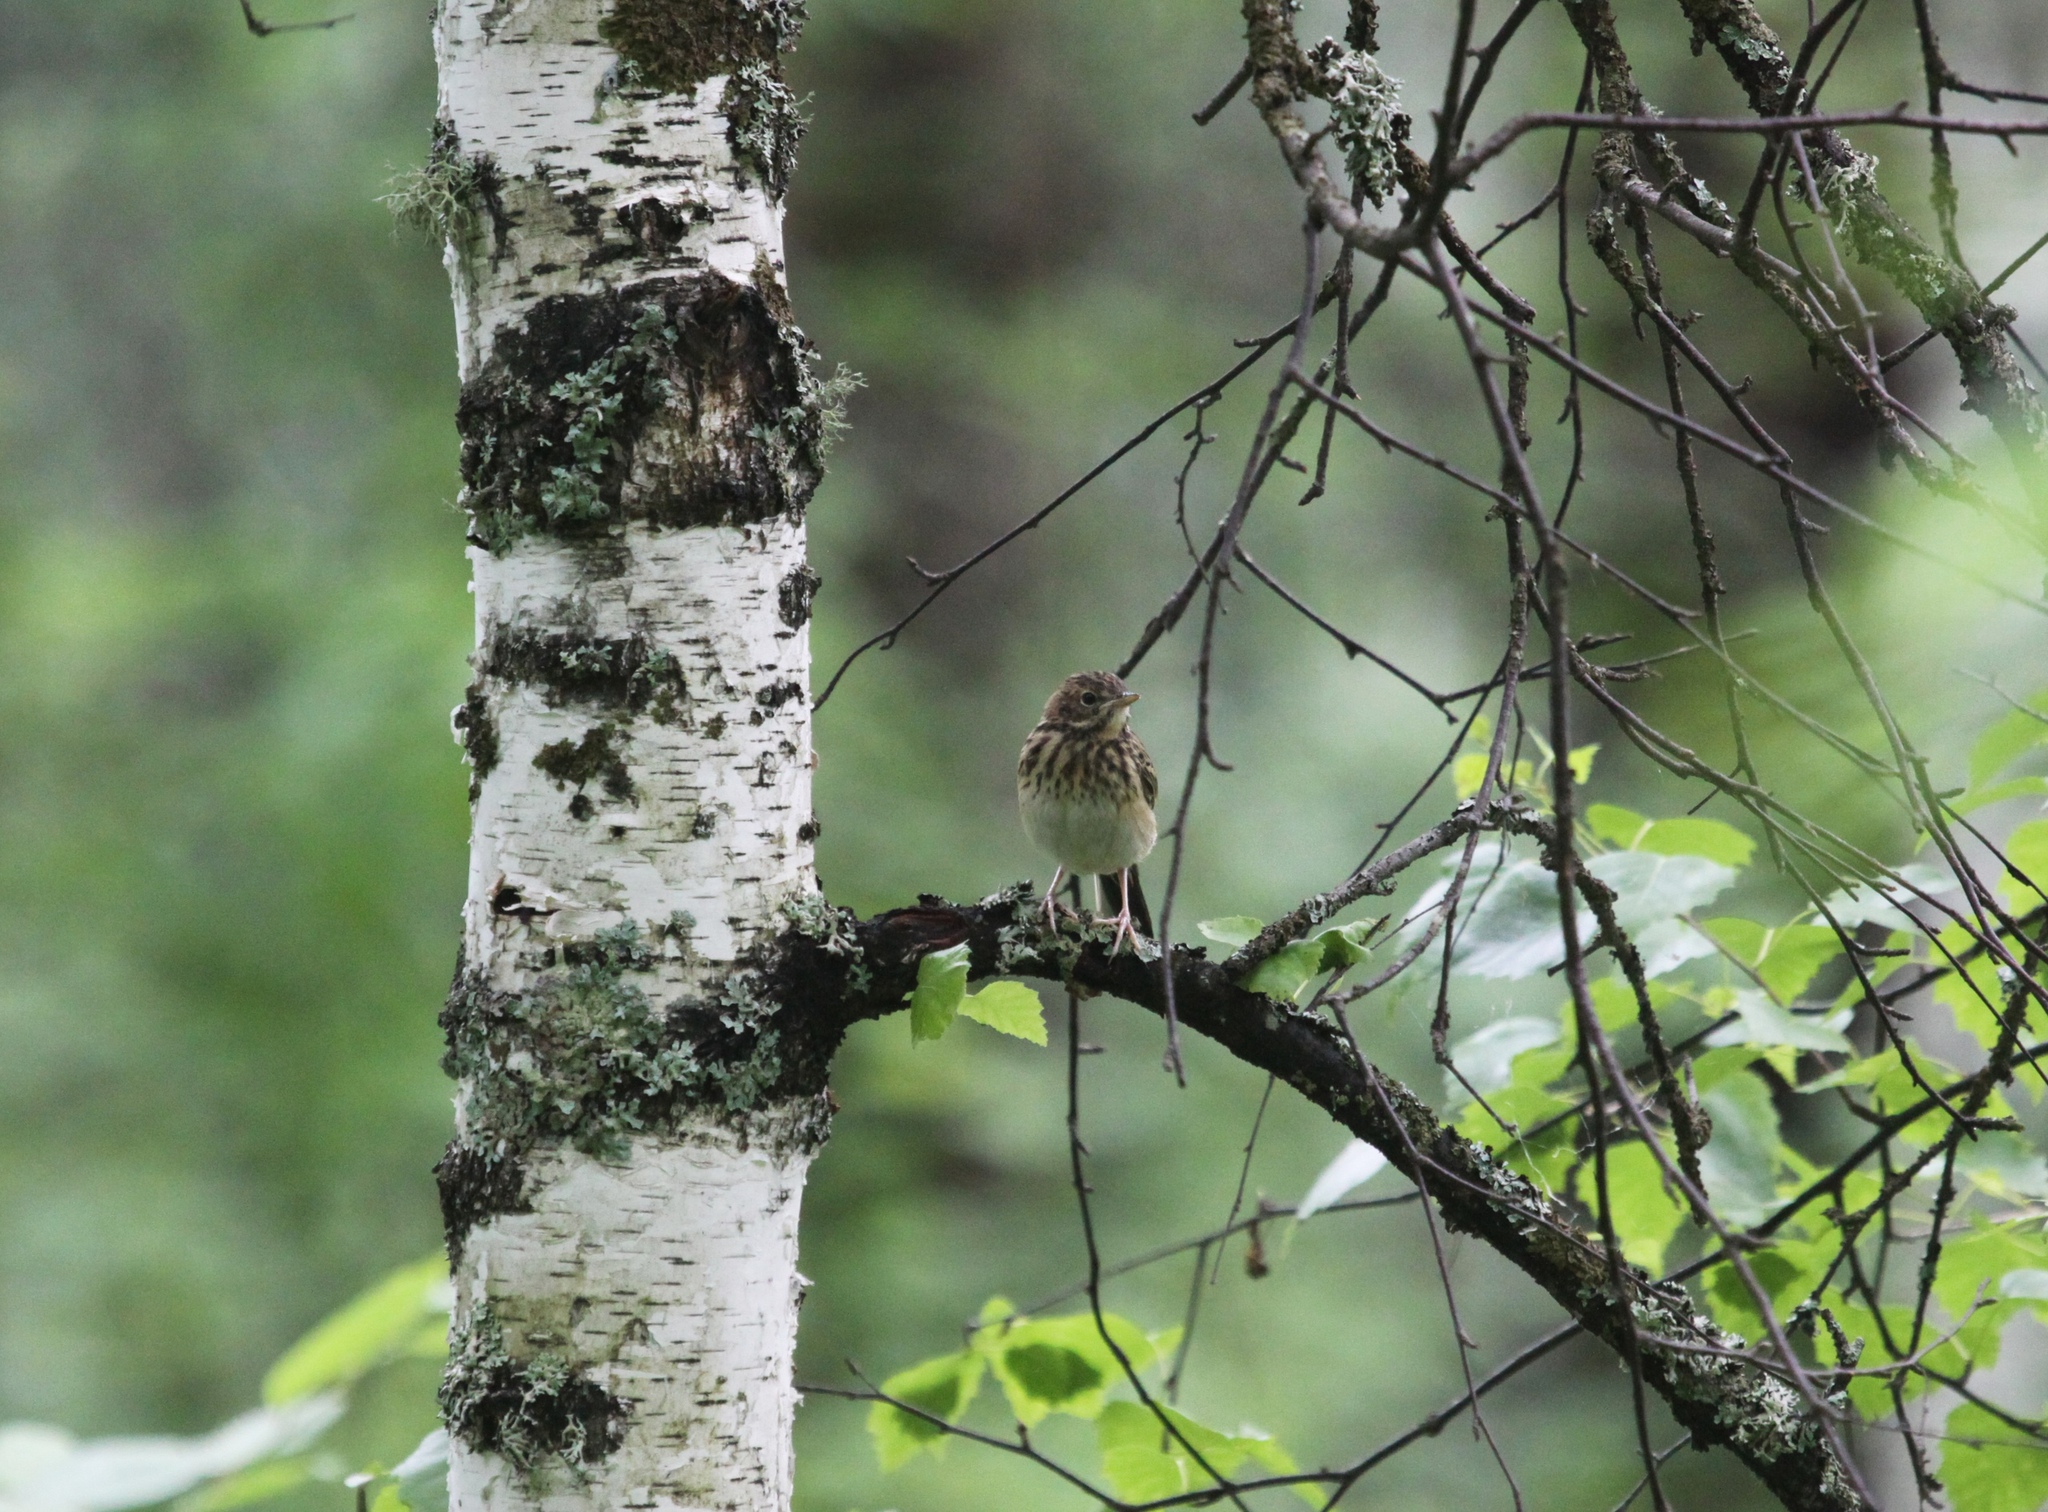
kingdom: Animalia
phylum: Chordata
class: Aves
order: Passeriformes
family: Motacillidae
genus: Anthus
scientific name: Anthus trivialis
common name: Tree pipit
